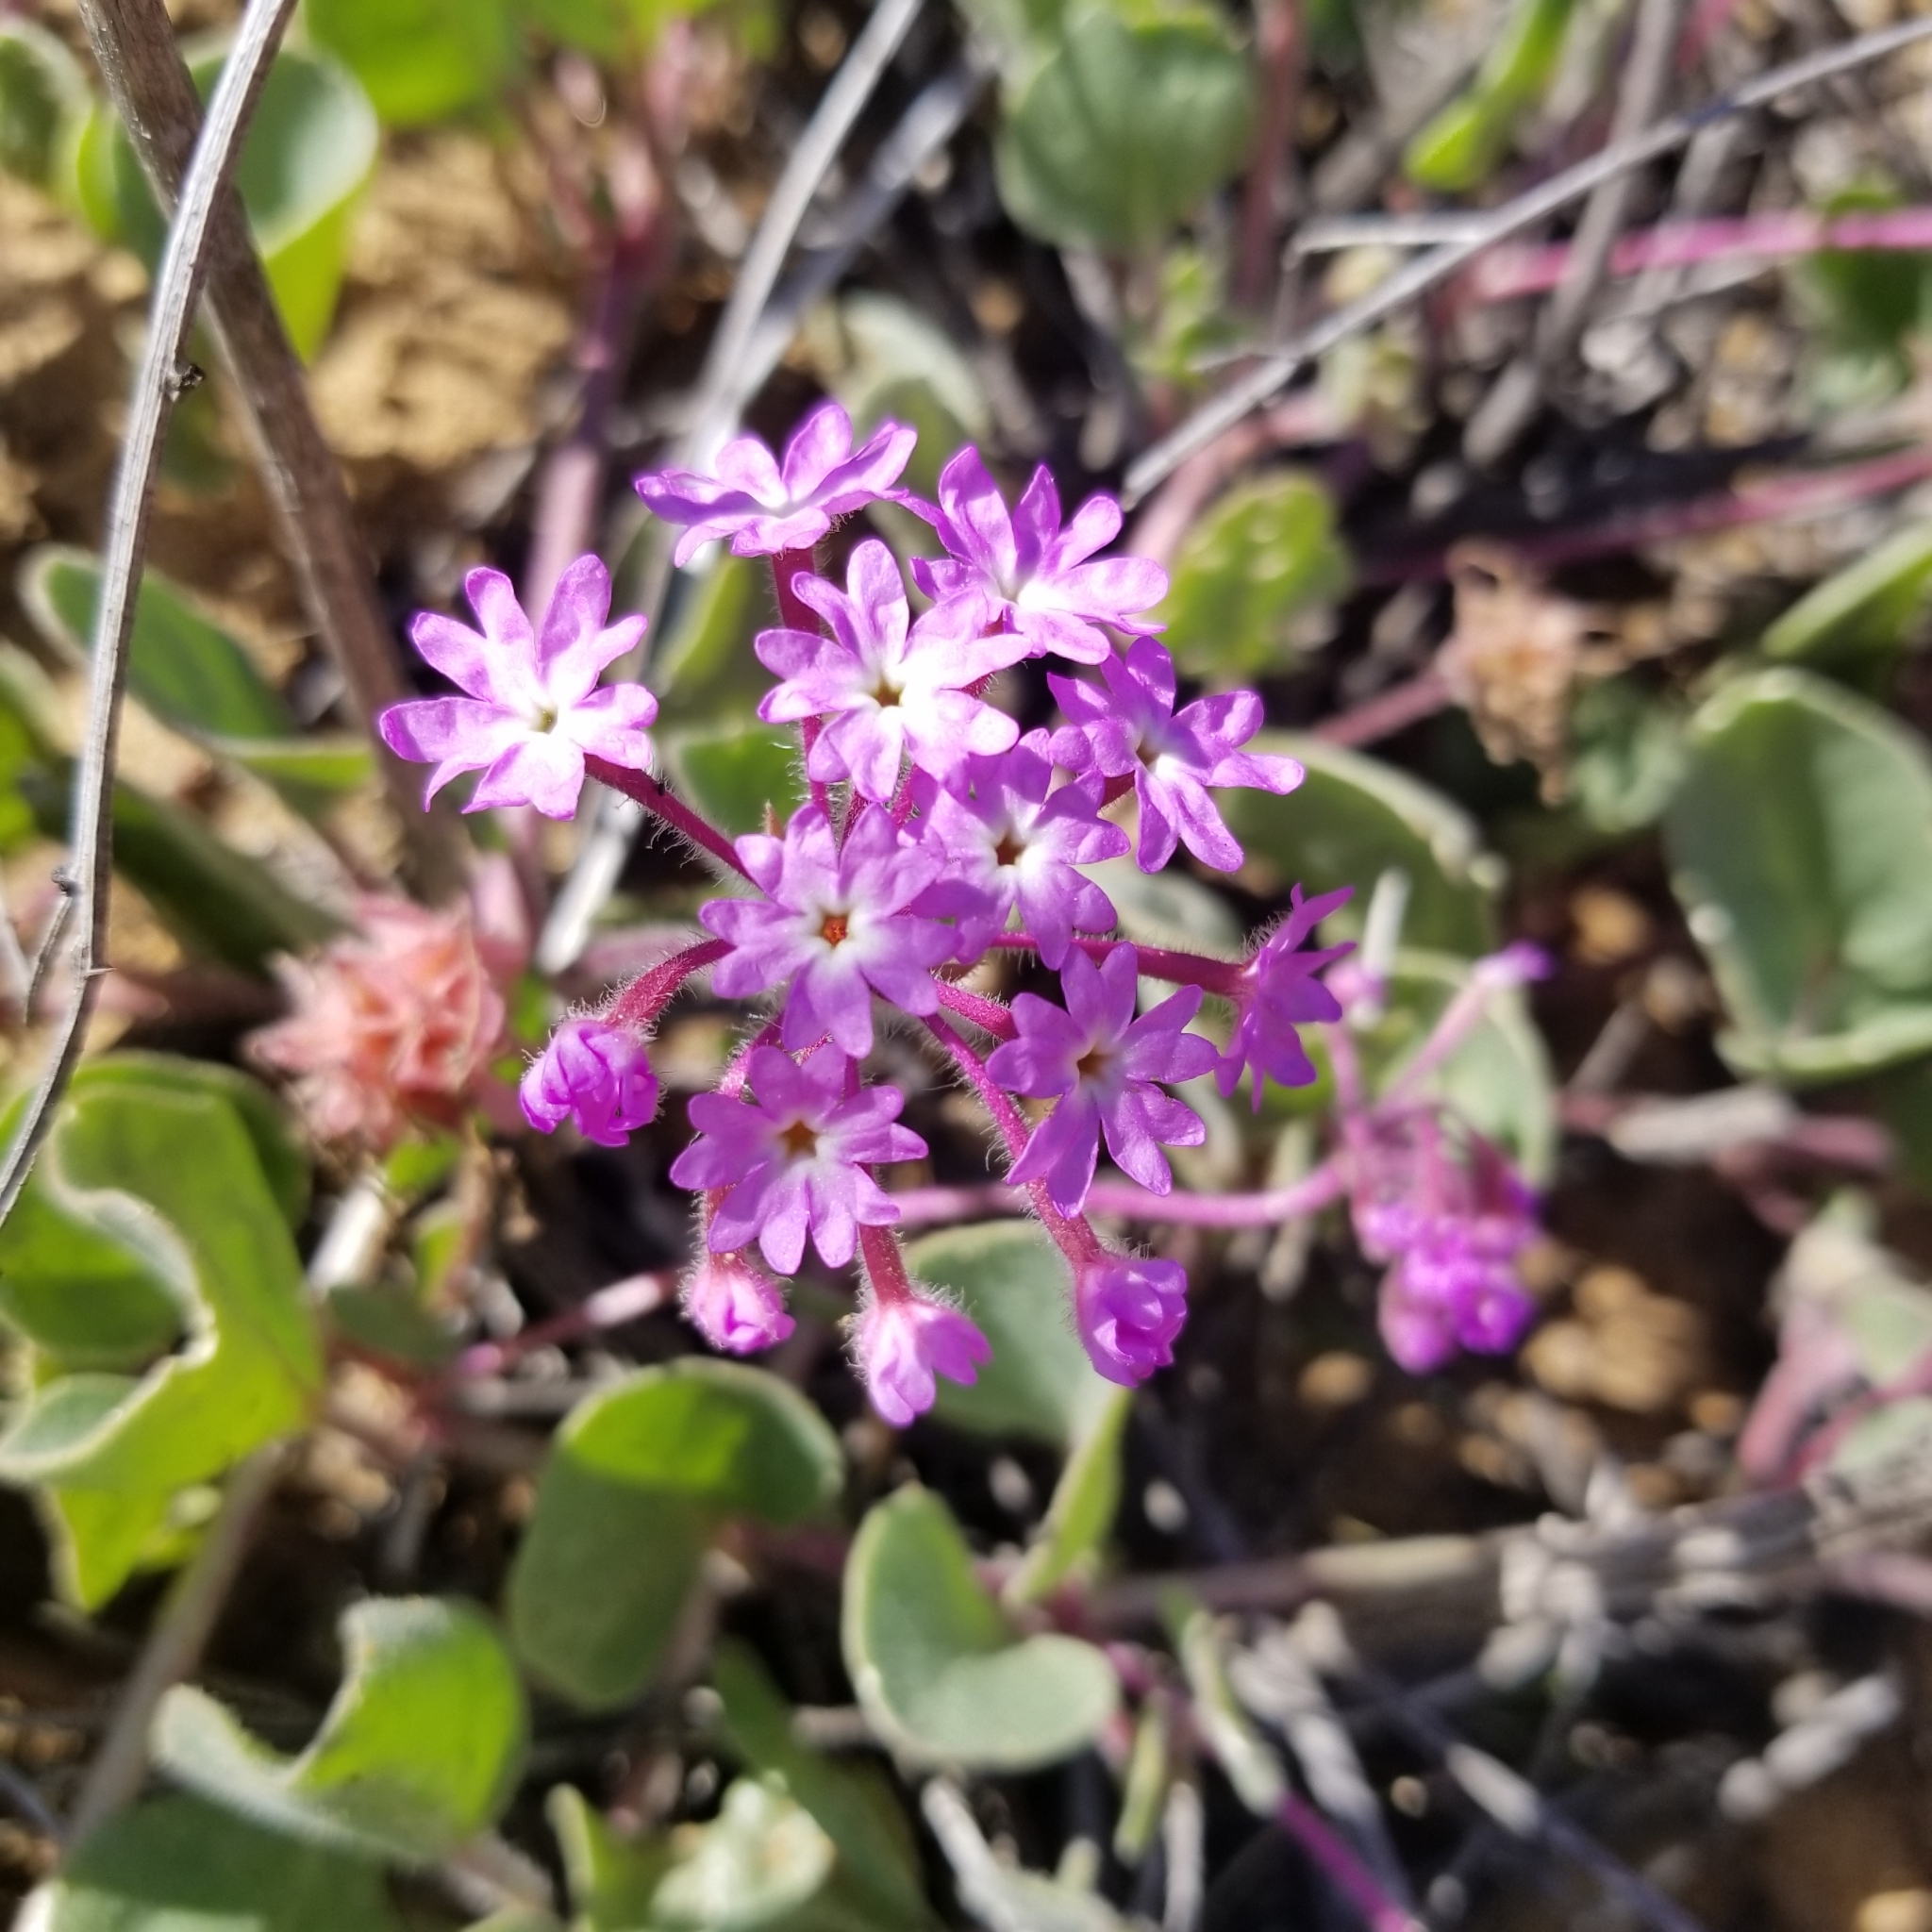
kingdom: Plantae
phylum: Tracheophyta
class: Magnoliopsida
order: Caryophyllales
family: Nyctaginaceae
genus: Abronia
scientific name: Abronia umbellata
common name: Sand-verbena
